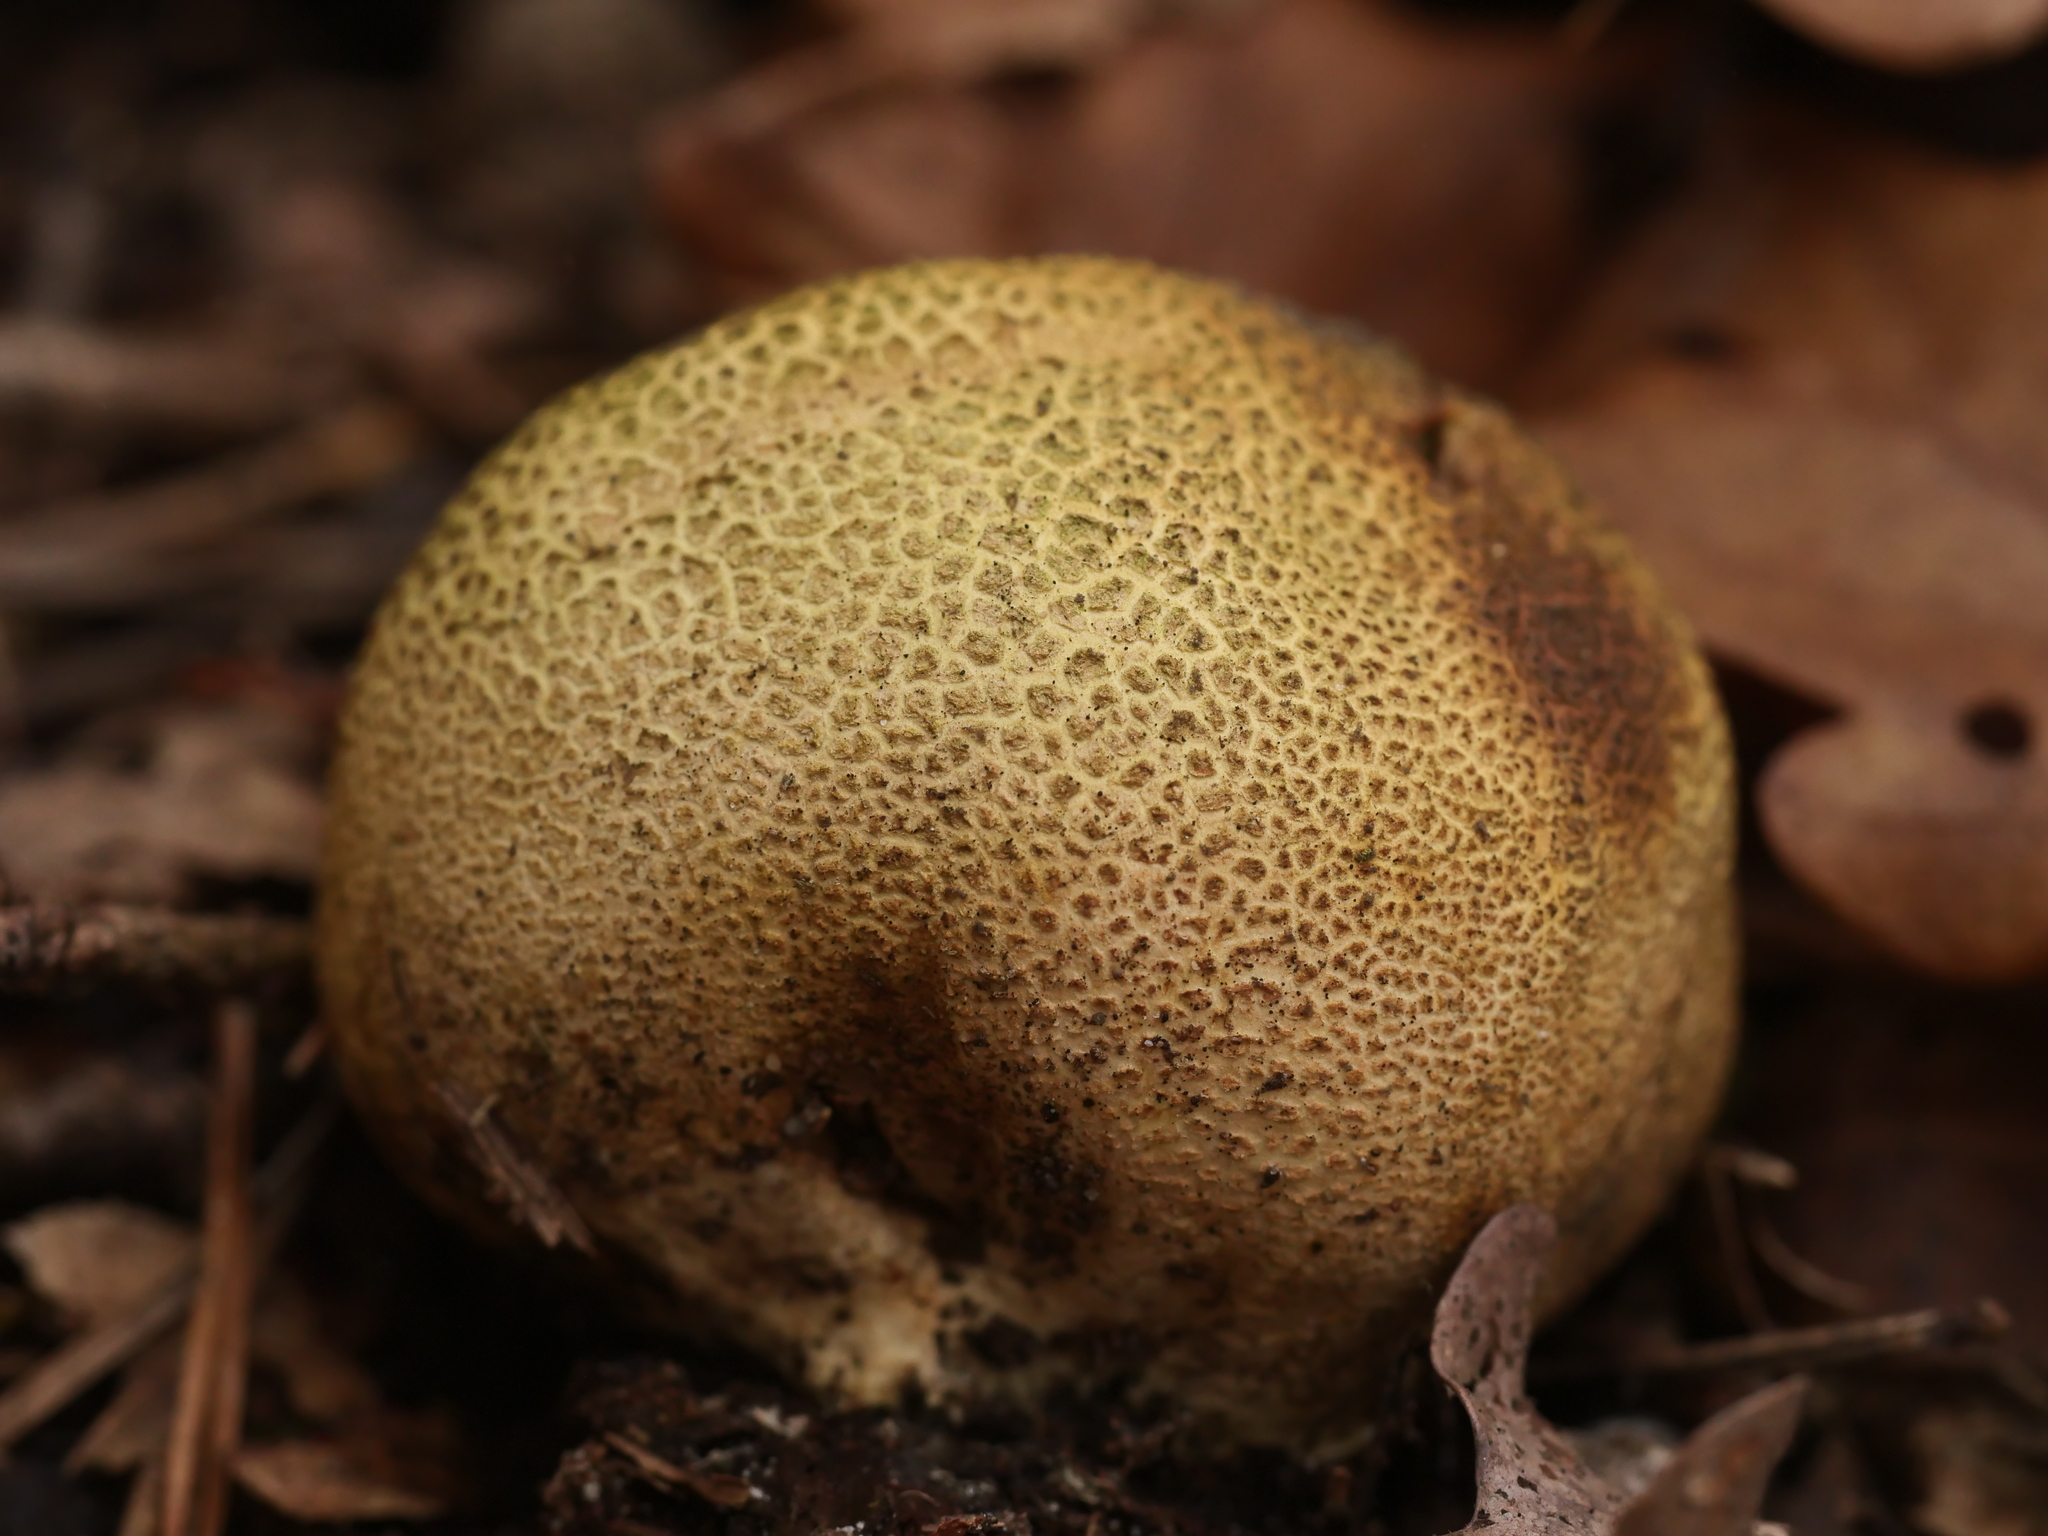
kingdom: Fungi
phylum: Basidiomycota
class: Agaricomycetes
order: Boletales
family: Sclerodermataceae
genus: Scleroderma
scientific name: Scleroderma citrinum
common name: Common earthball
